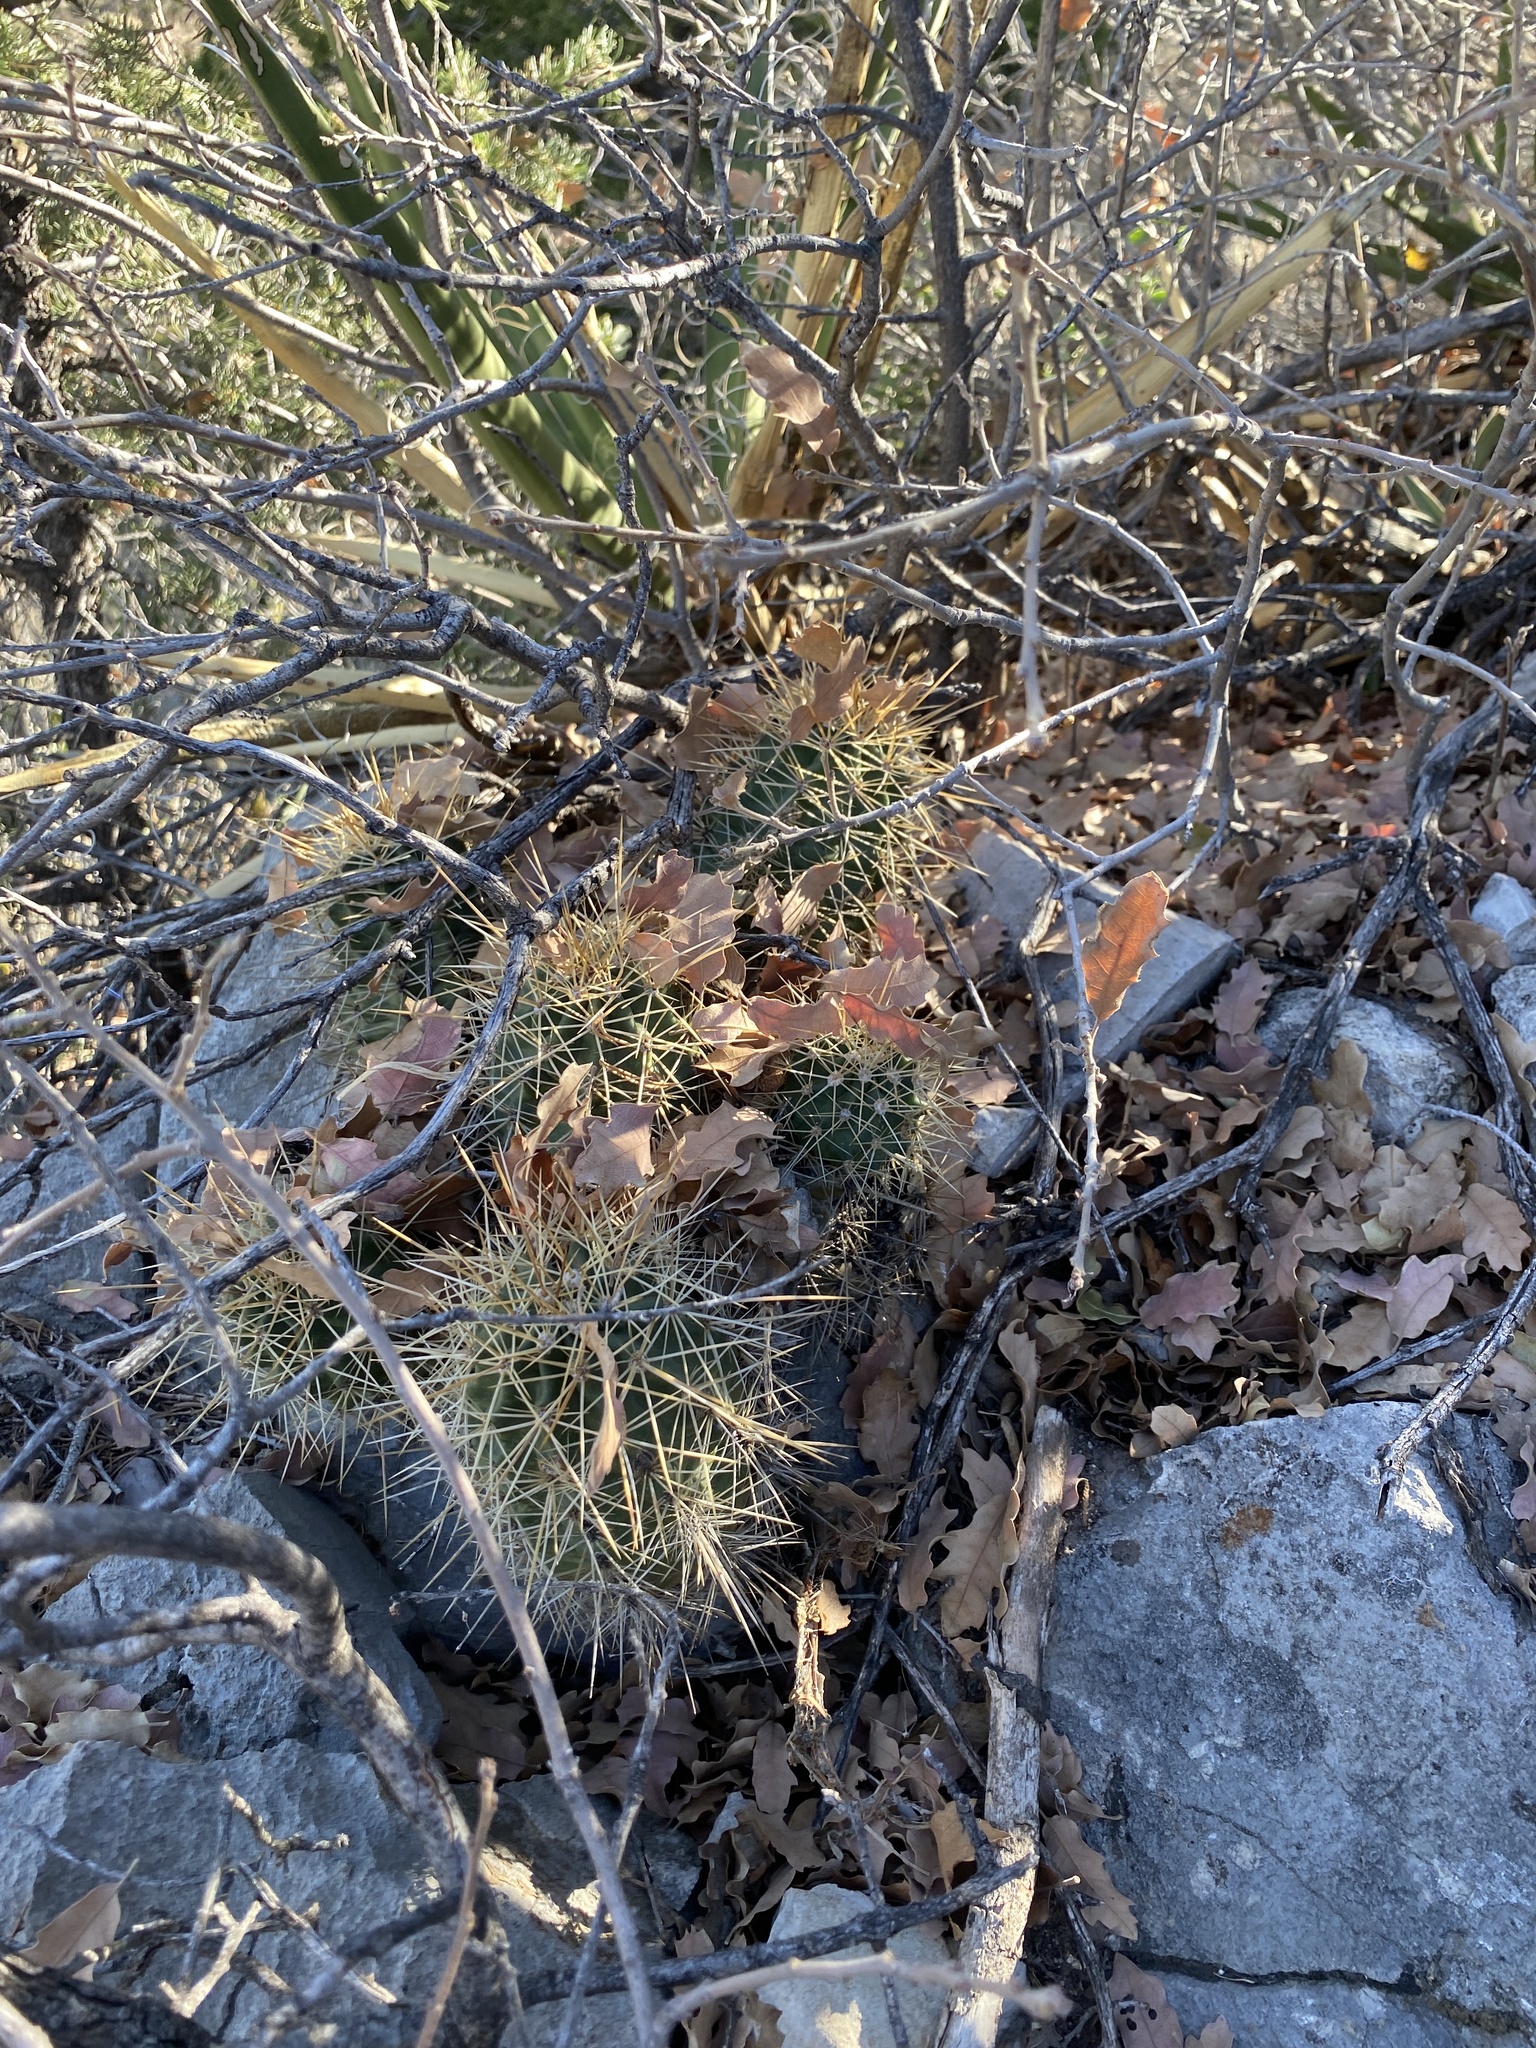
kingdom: Plantae
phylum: Tracheophyta
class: Magnoliopsida
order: Caryophyllales
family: Cactaceae
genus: Echinocereus
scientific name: Echinocereus coccineus
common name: Scarlet hedgehog cactus
